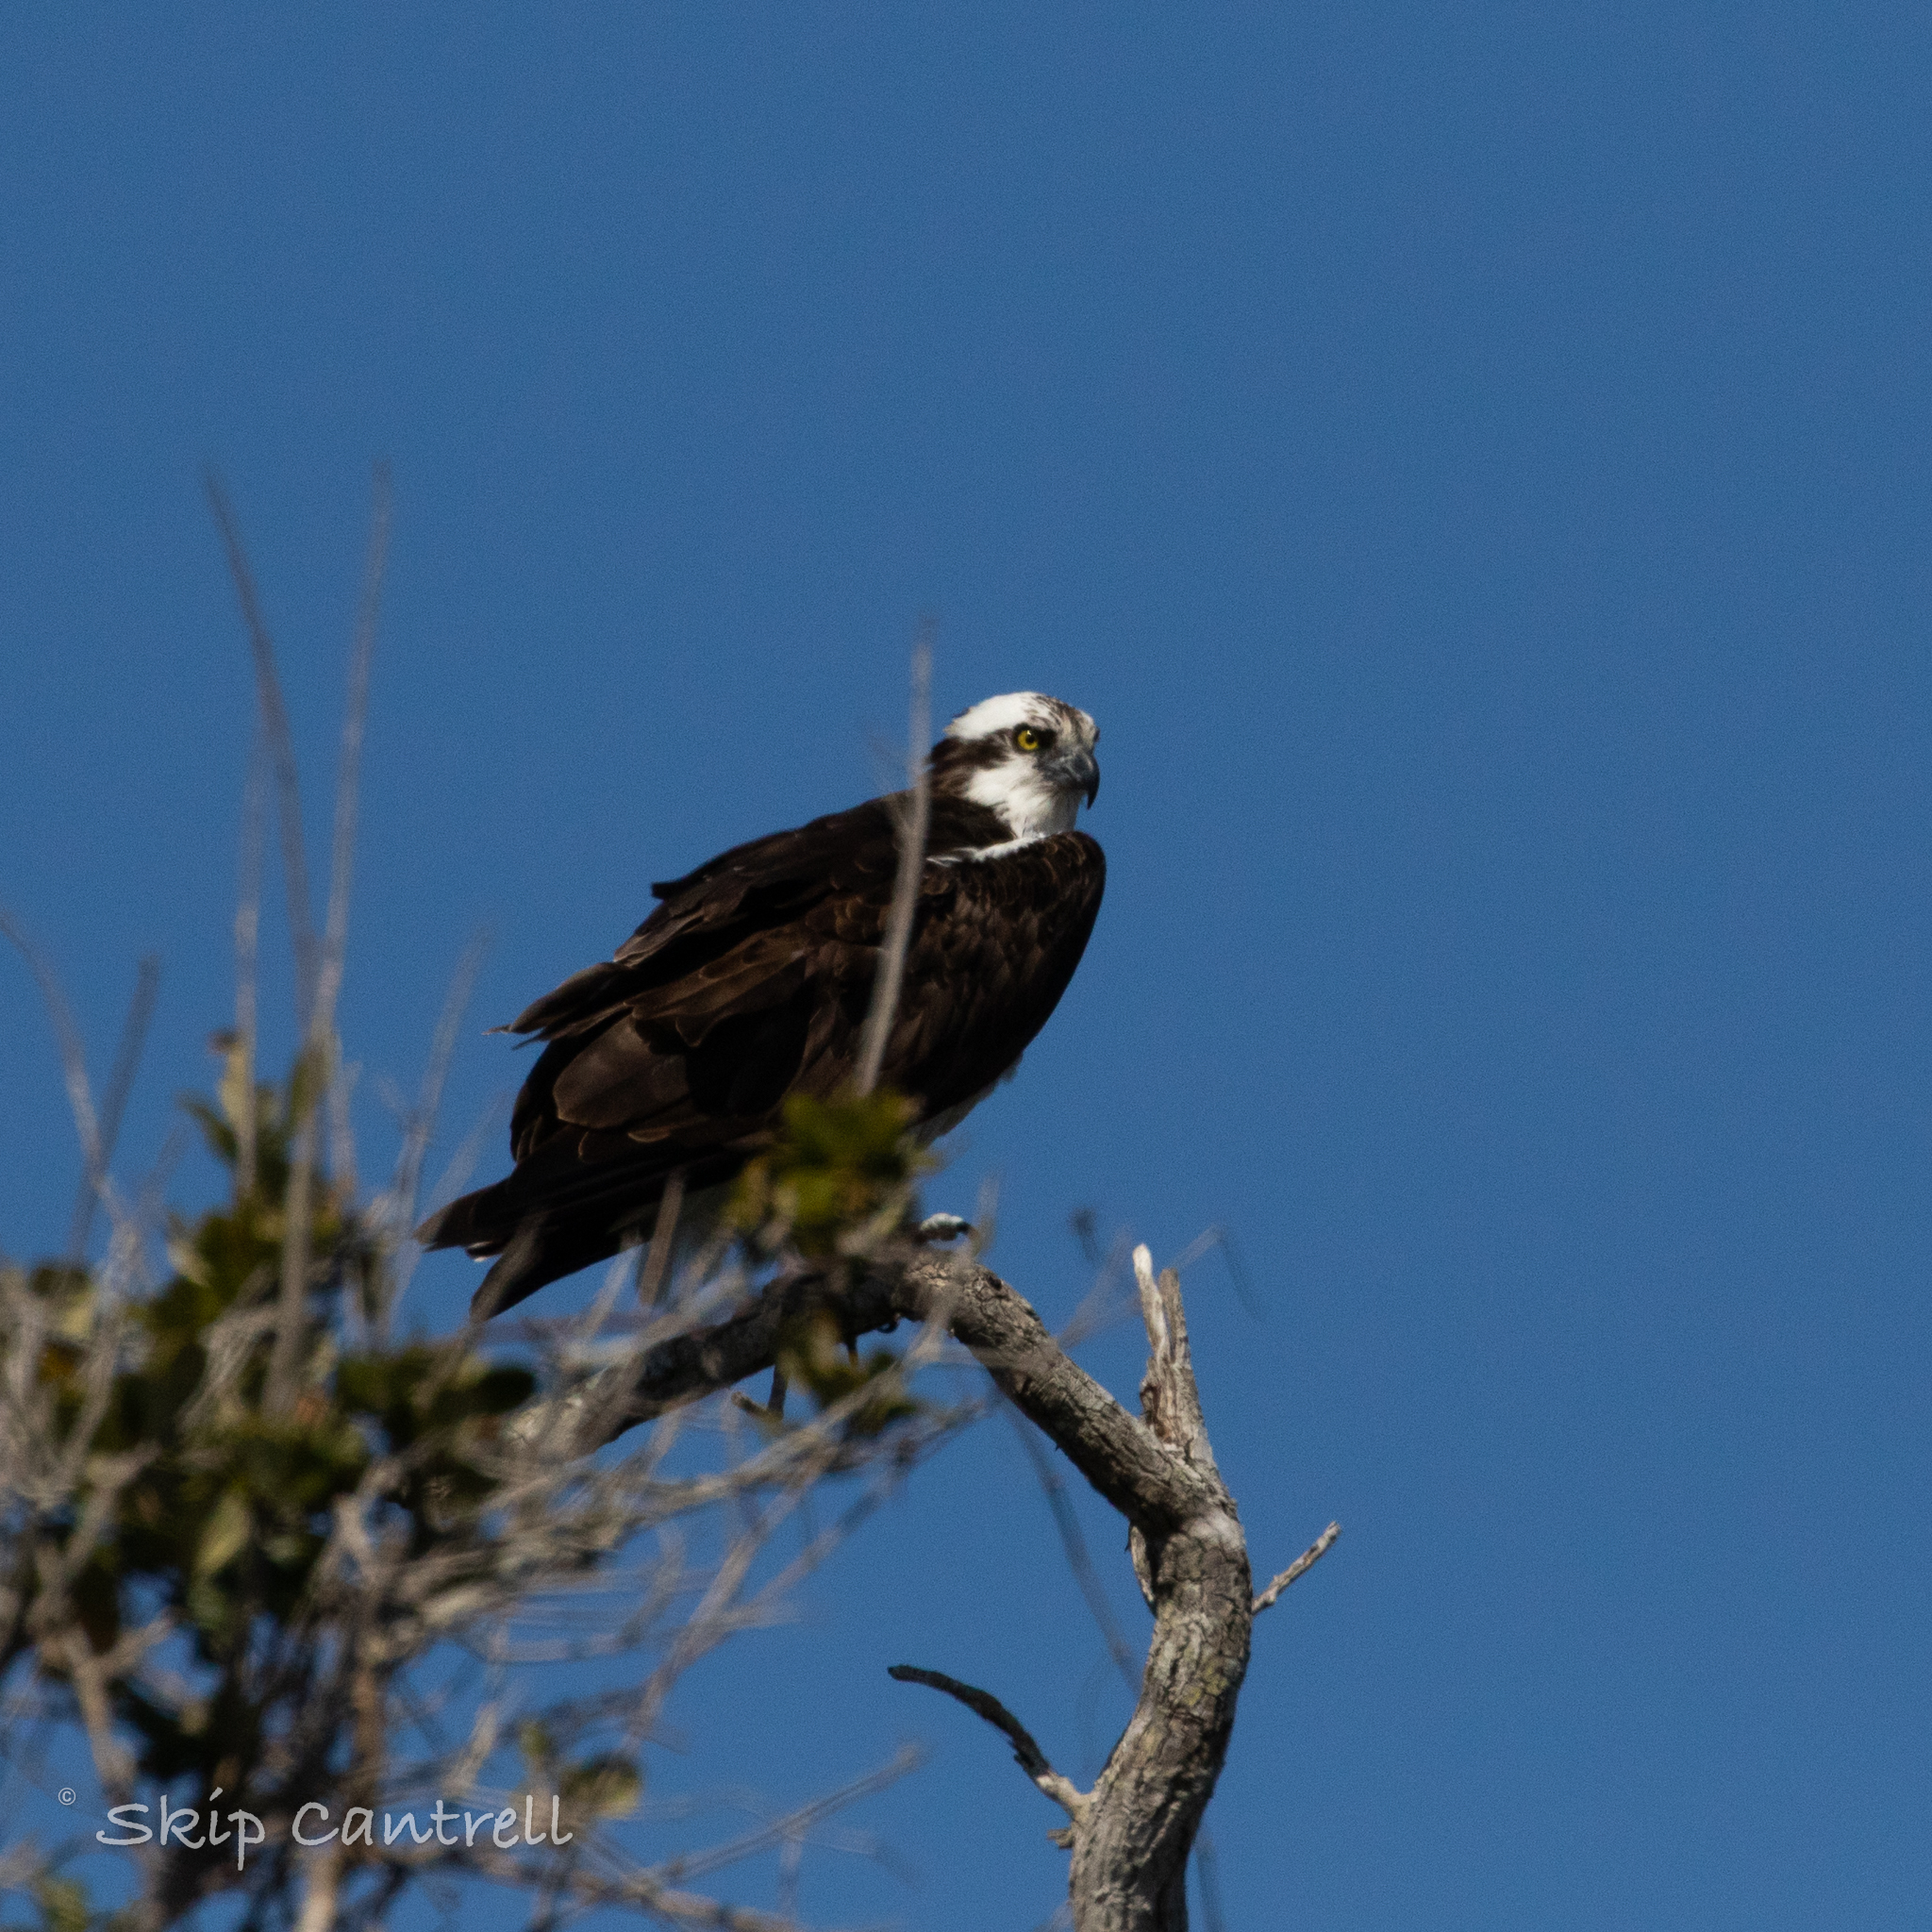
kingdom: Animalia
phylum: Chordata
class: Aves
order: Accipitriformes
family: Pandionidae
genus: Pandion
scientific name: Pandion haliaetus
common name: Osprey
